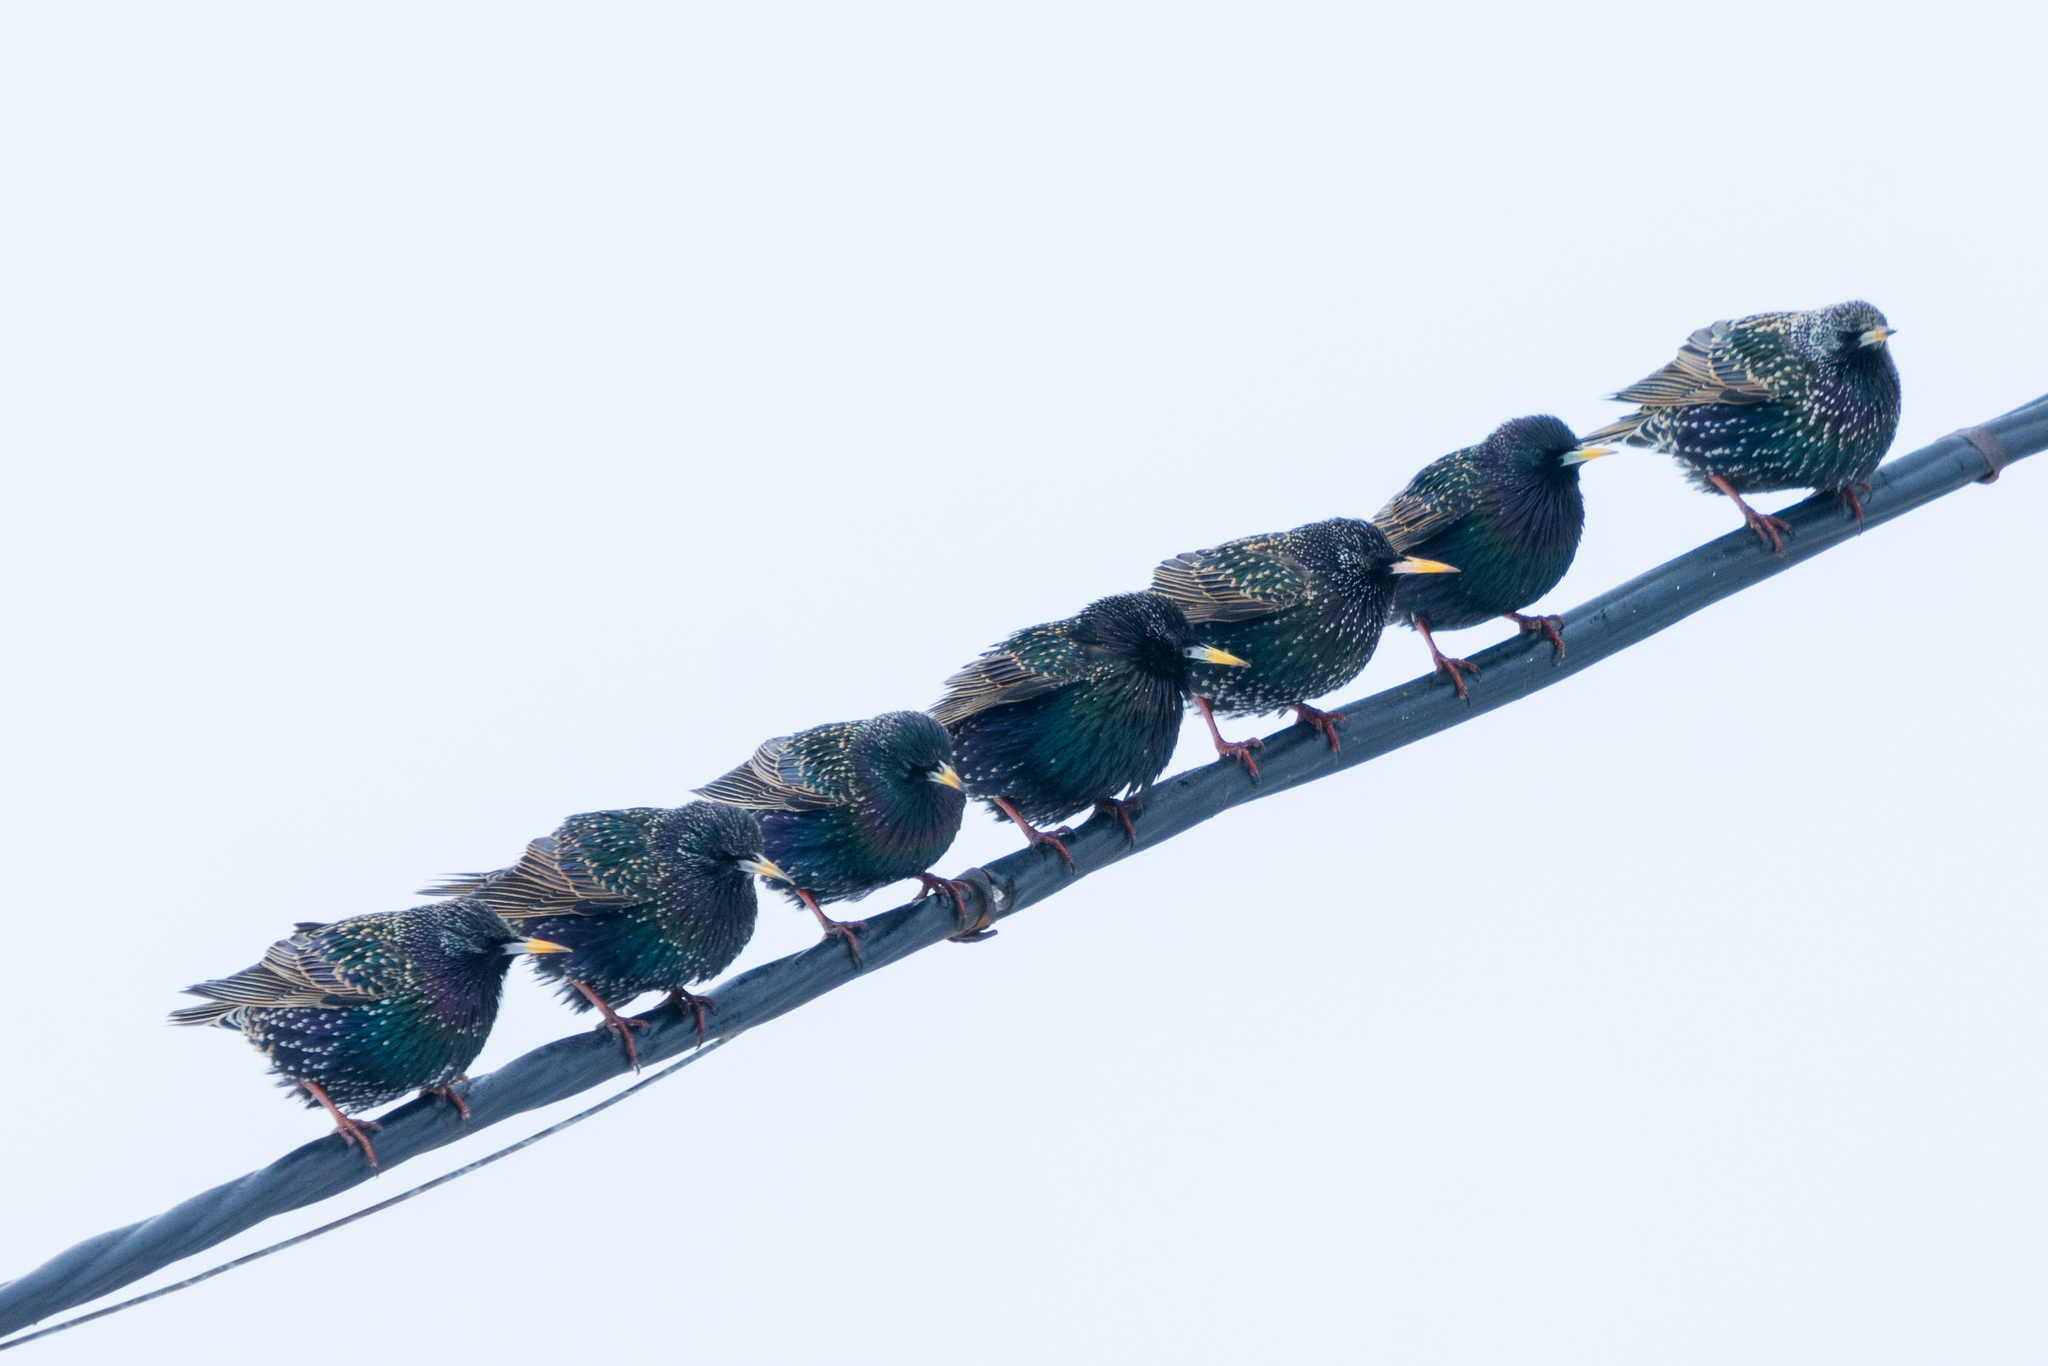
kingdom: Animalia
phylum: Chordata
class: Aves
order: Passeriformes
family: Sturnidae
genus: Sturnus
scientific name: Sturnus vulgaris
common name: Common starling
